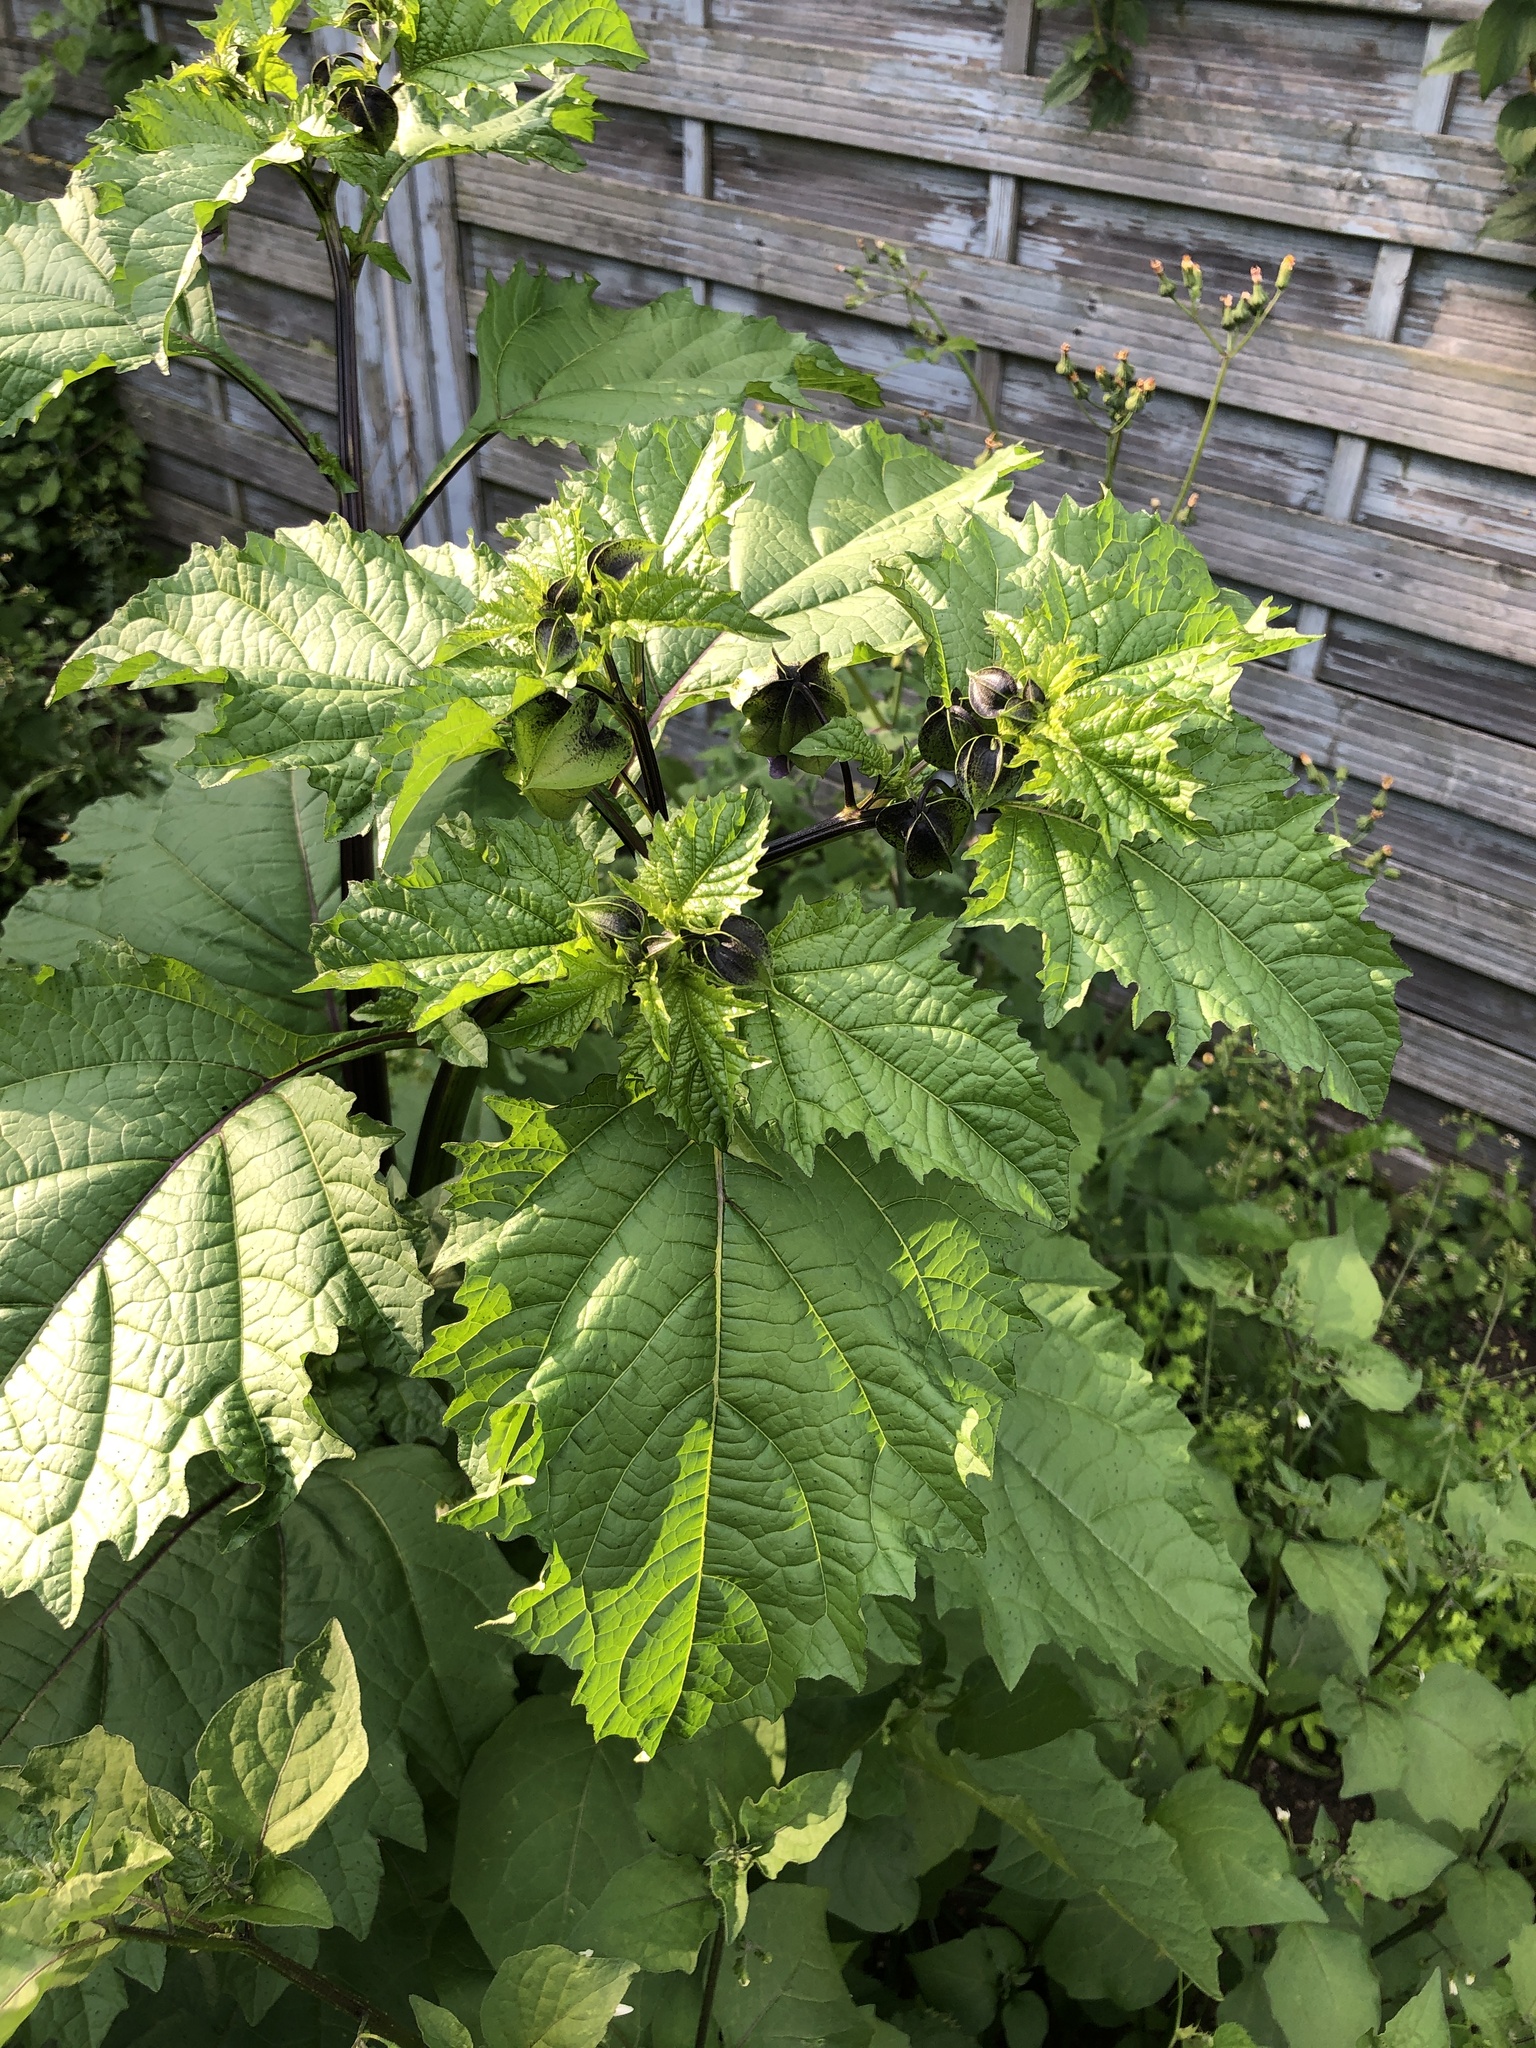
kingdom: Plantae
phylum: Tracheophyta
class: Magnoliopsida
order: Solanales
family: Solanaceae
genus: Nicandra
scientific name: Nicandra physalodes
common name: Apple-of-peru
